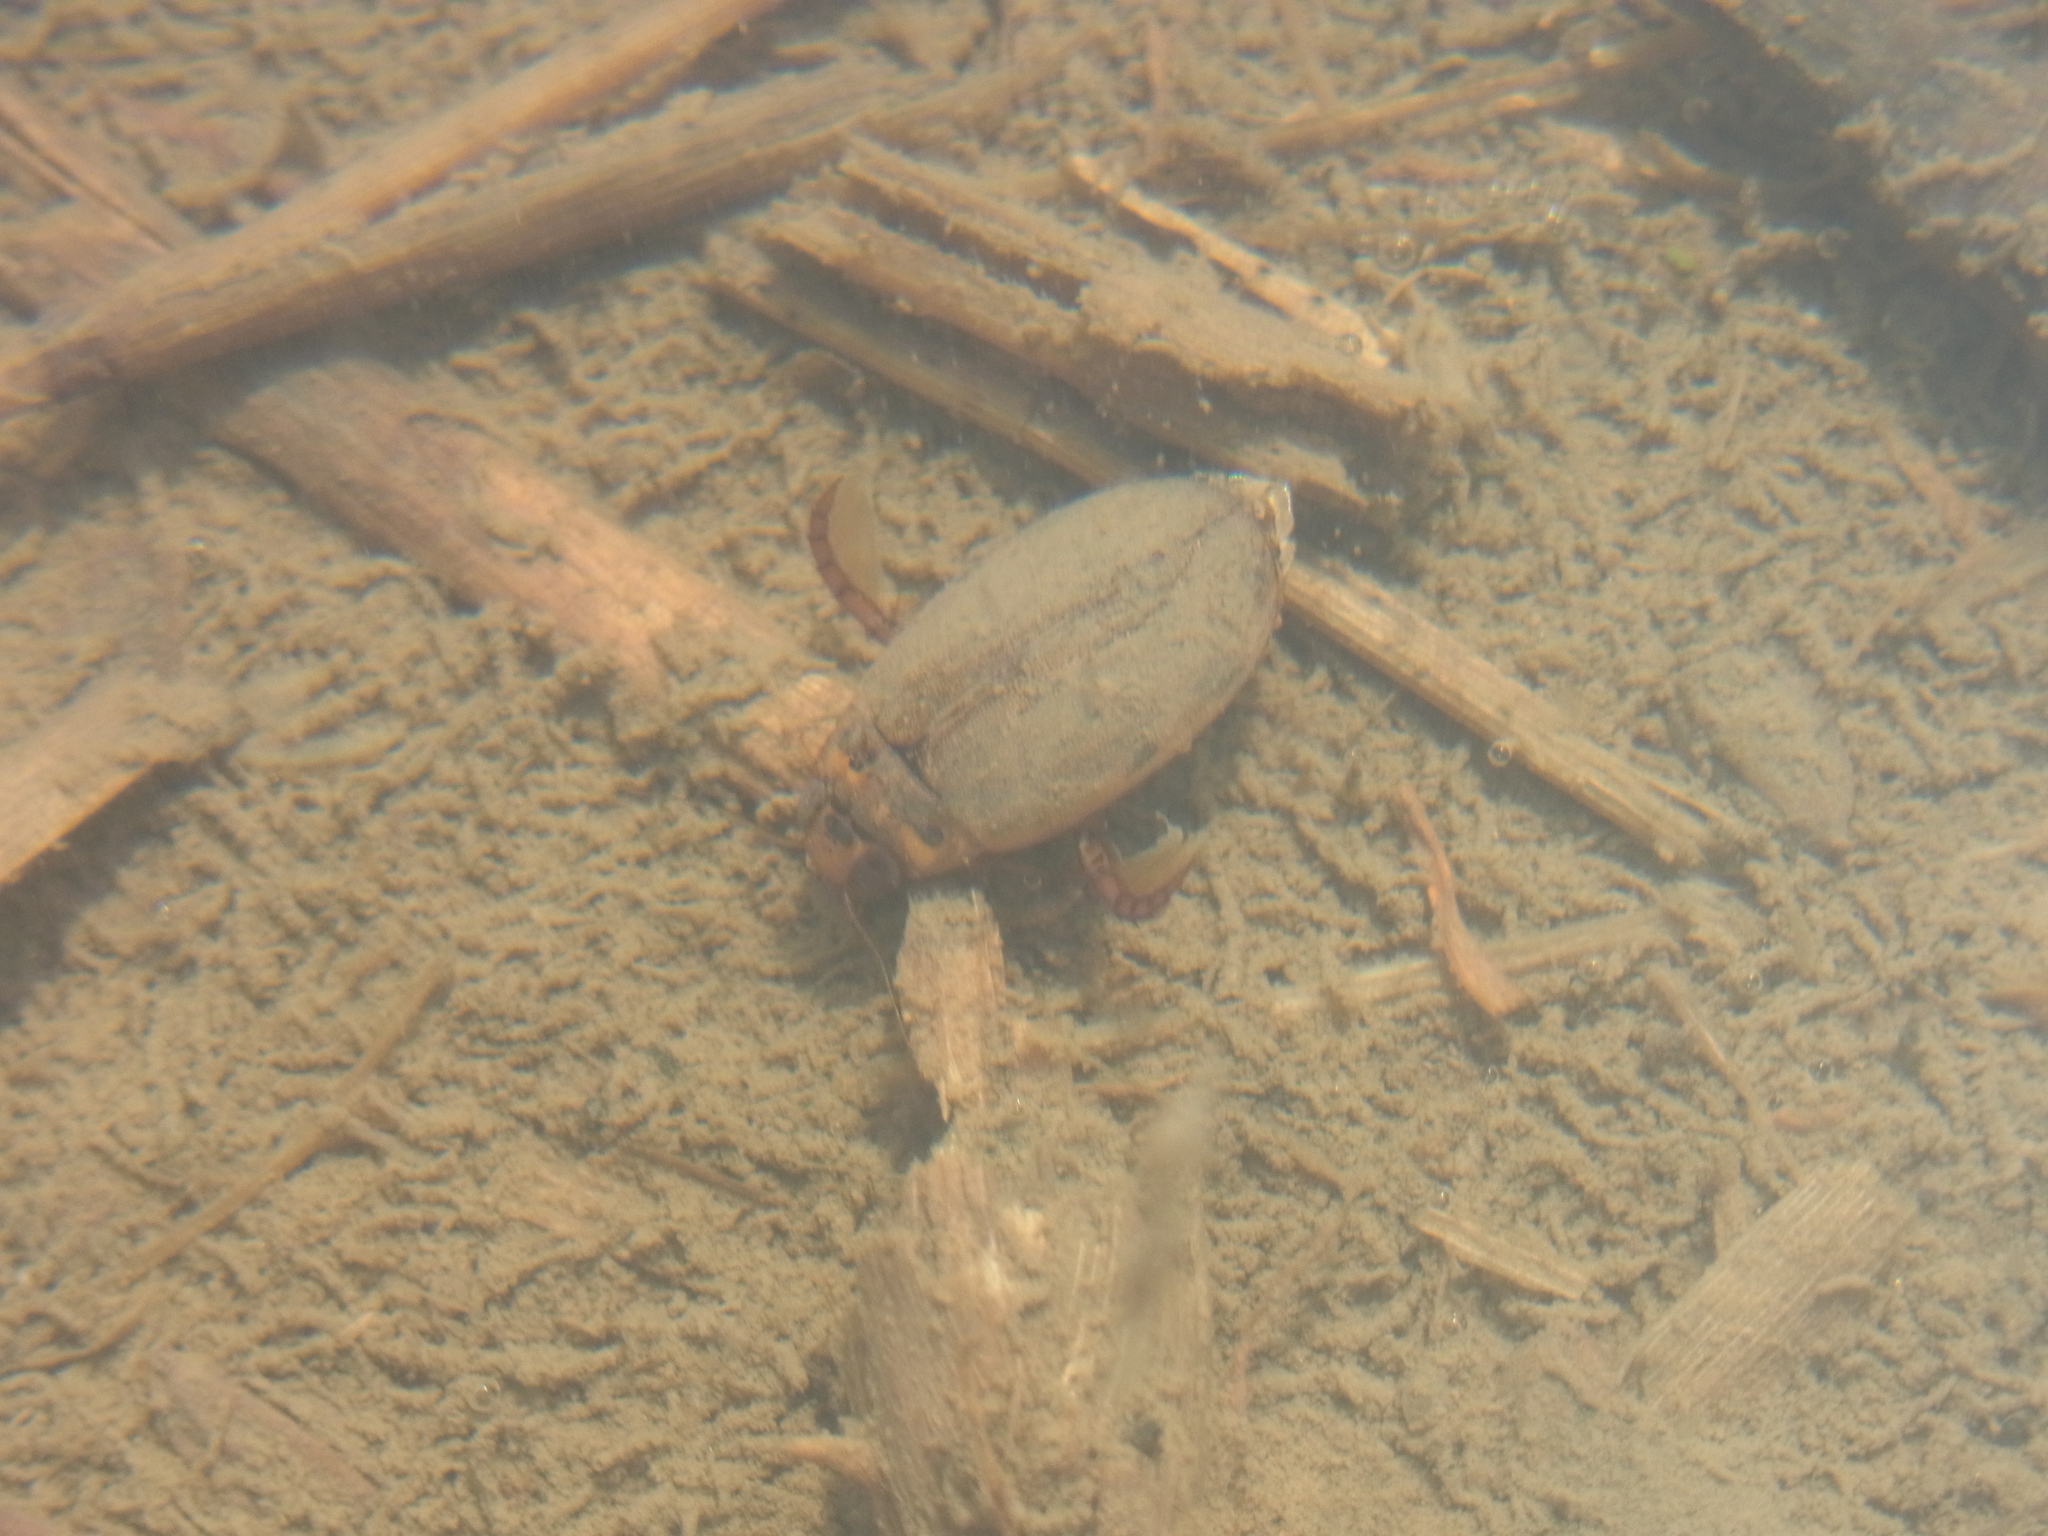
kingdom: Animalia
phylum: Arthropoda
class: Insecta
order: Coleoptera
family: Dytiscidae
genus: Eretes
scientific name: Eretes griseus
